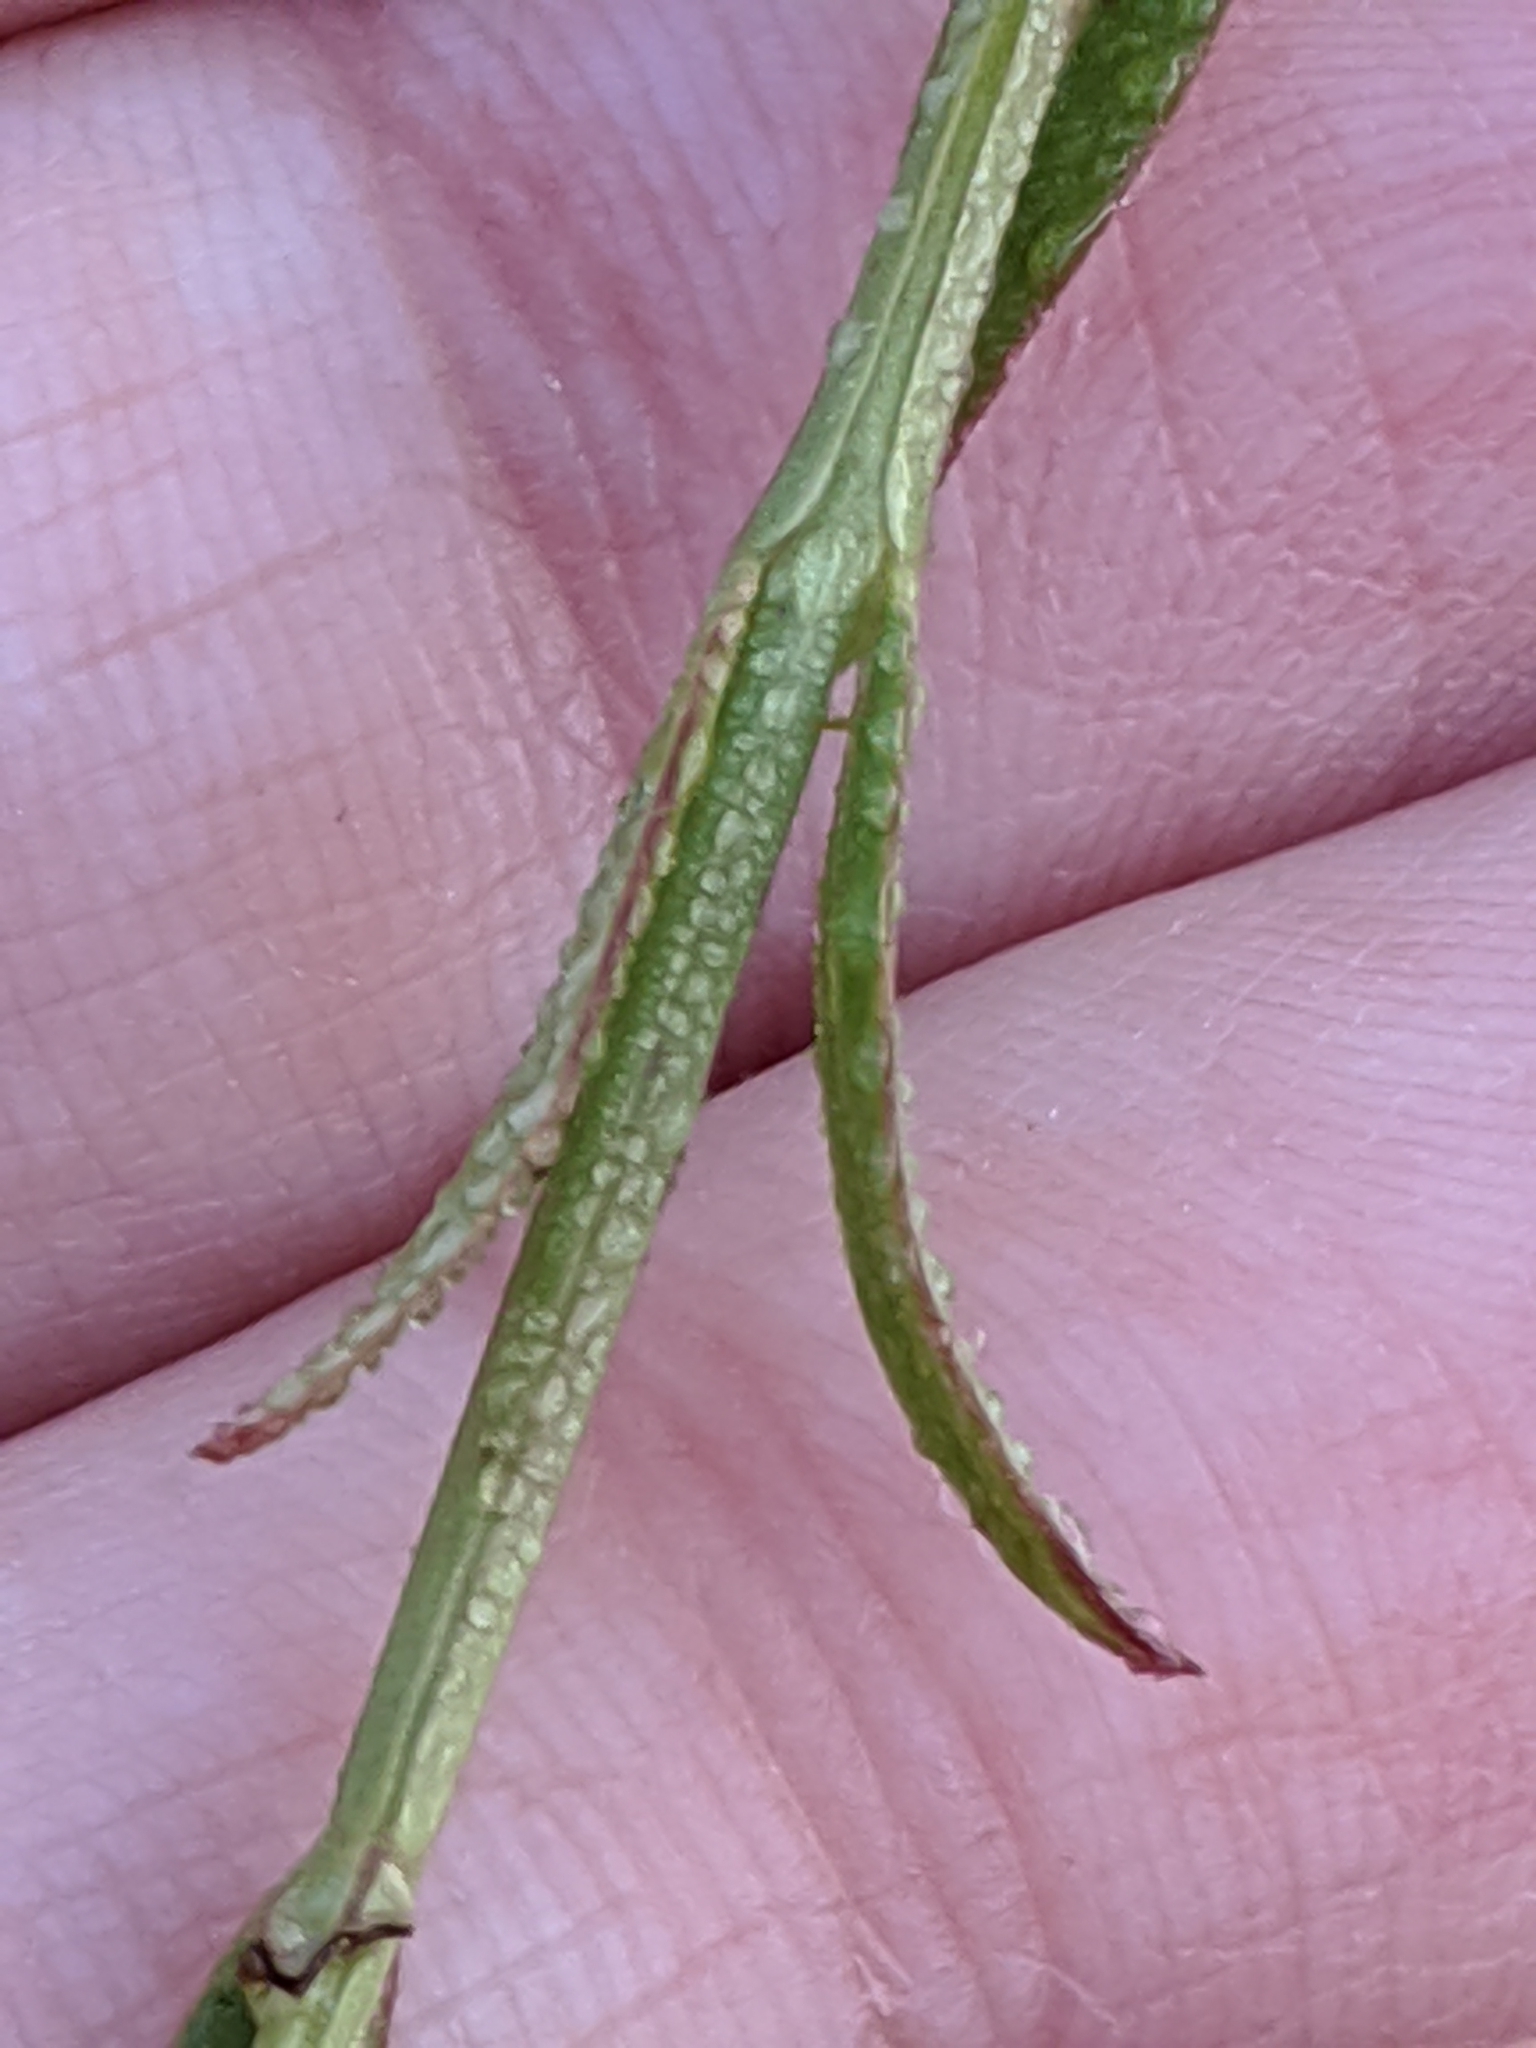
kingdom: Plantae
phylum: Tracheophyta
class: Magnoliopsida
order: Lamiales
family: Orobanchaceae
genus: Agalinis
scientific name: Agalinis heterophylla
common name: Prairie agalinis
